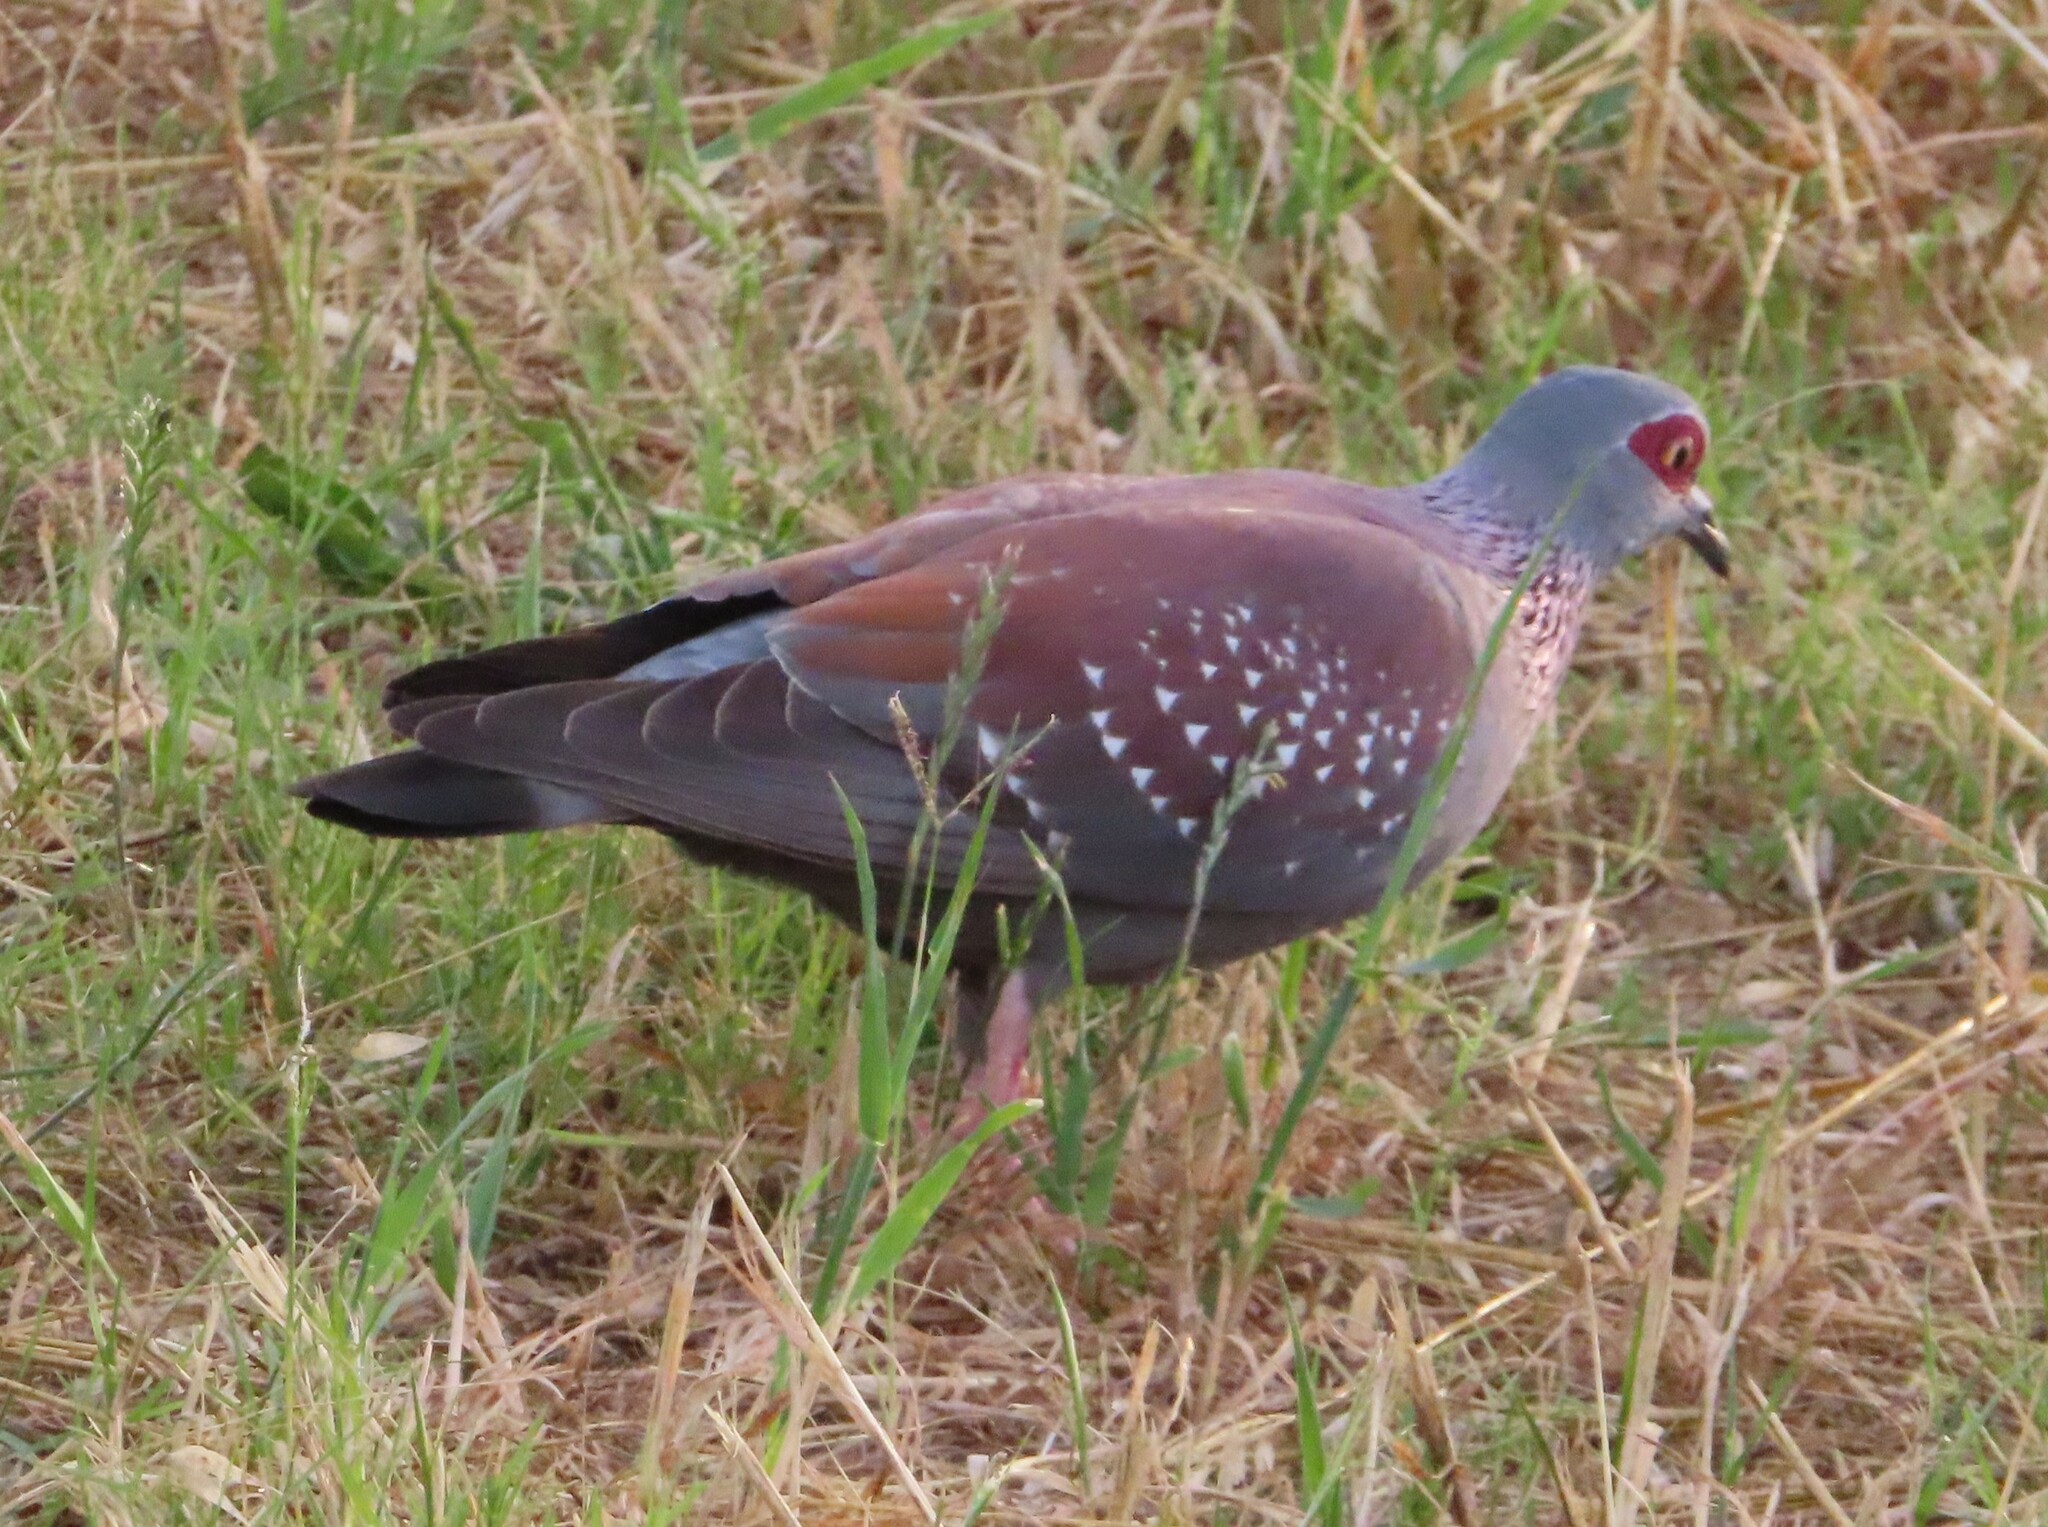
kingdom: Animalia
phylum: Chordata
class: Aves
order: Columbiformes
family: Columbidae
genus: Columba
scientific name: Columba guinea
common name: Speckled pigeon
